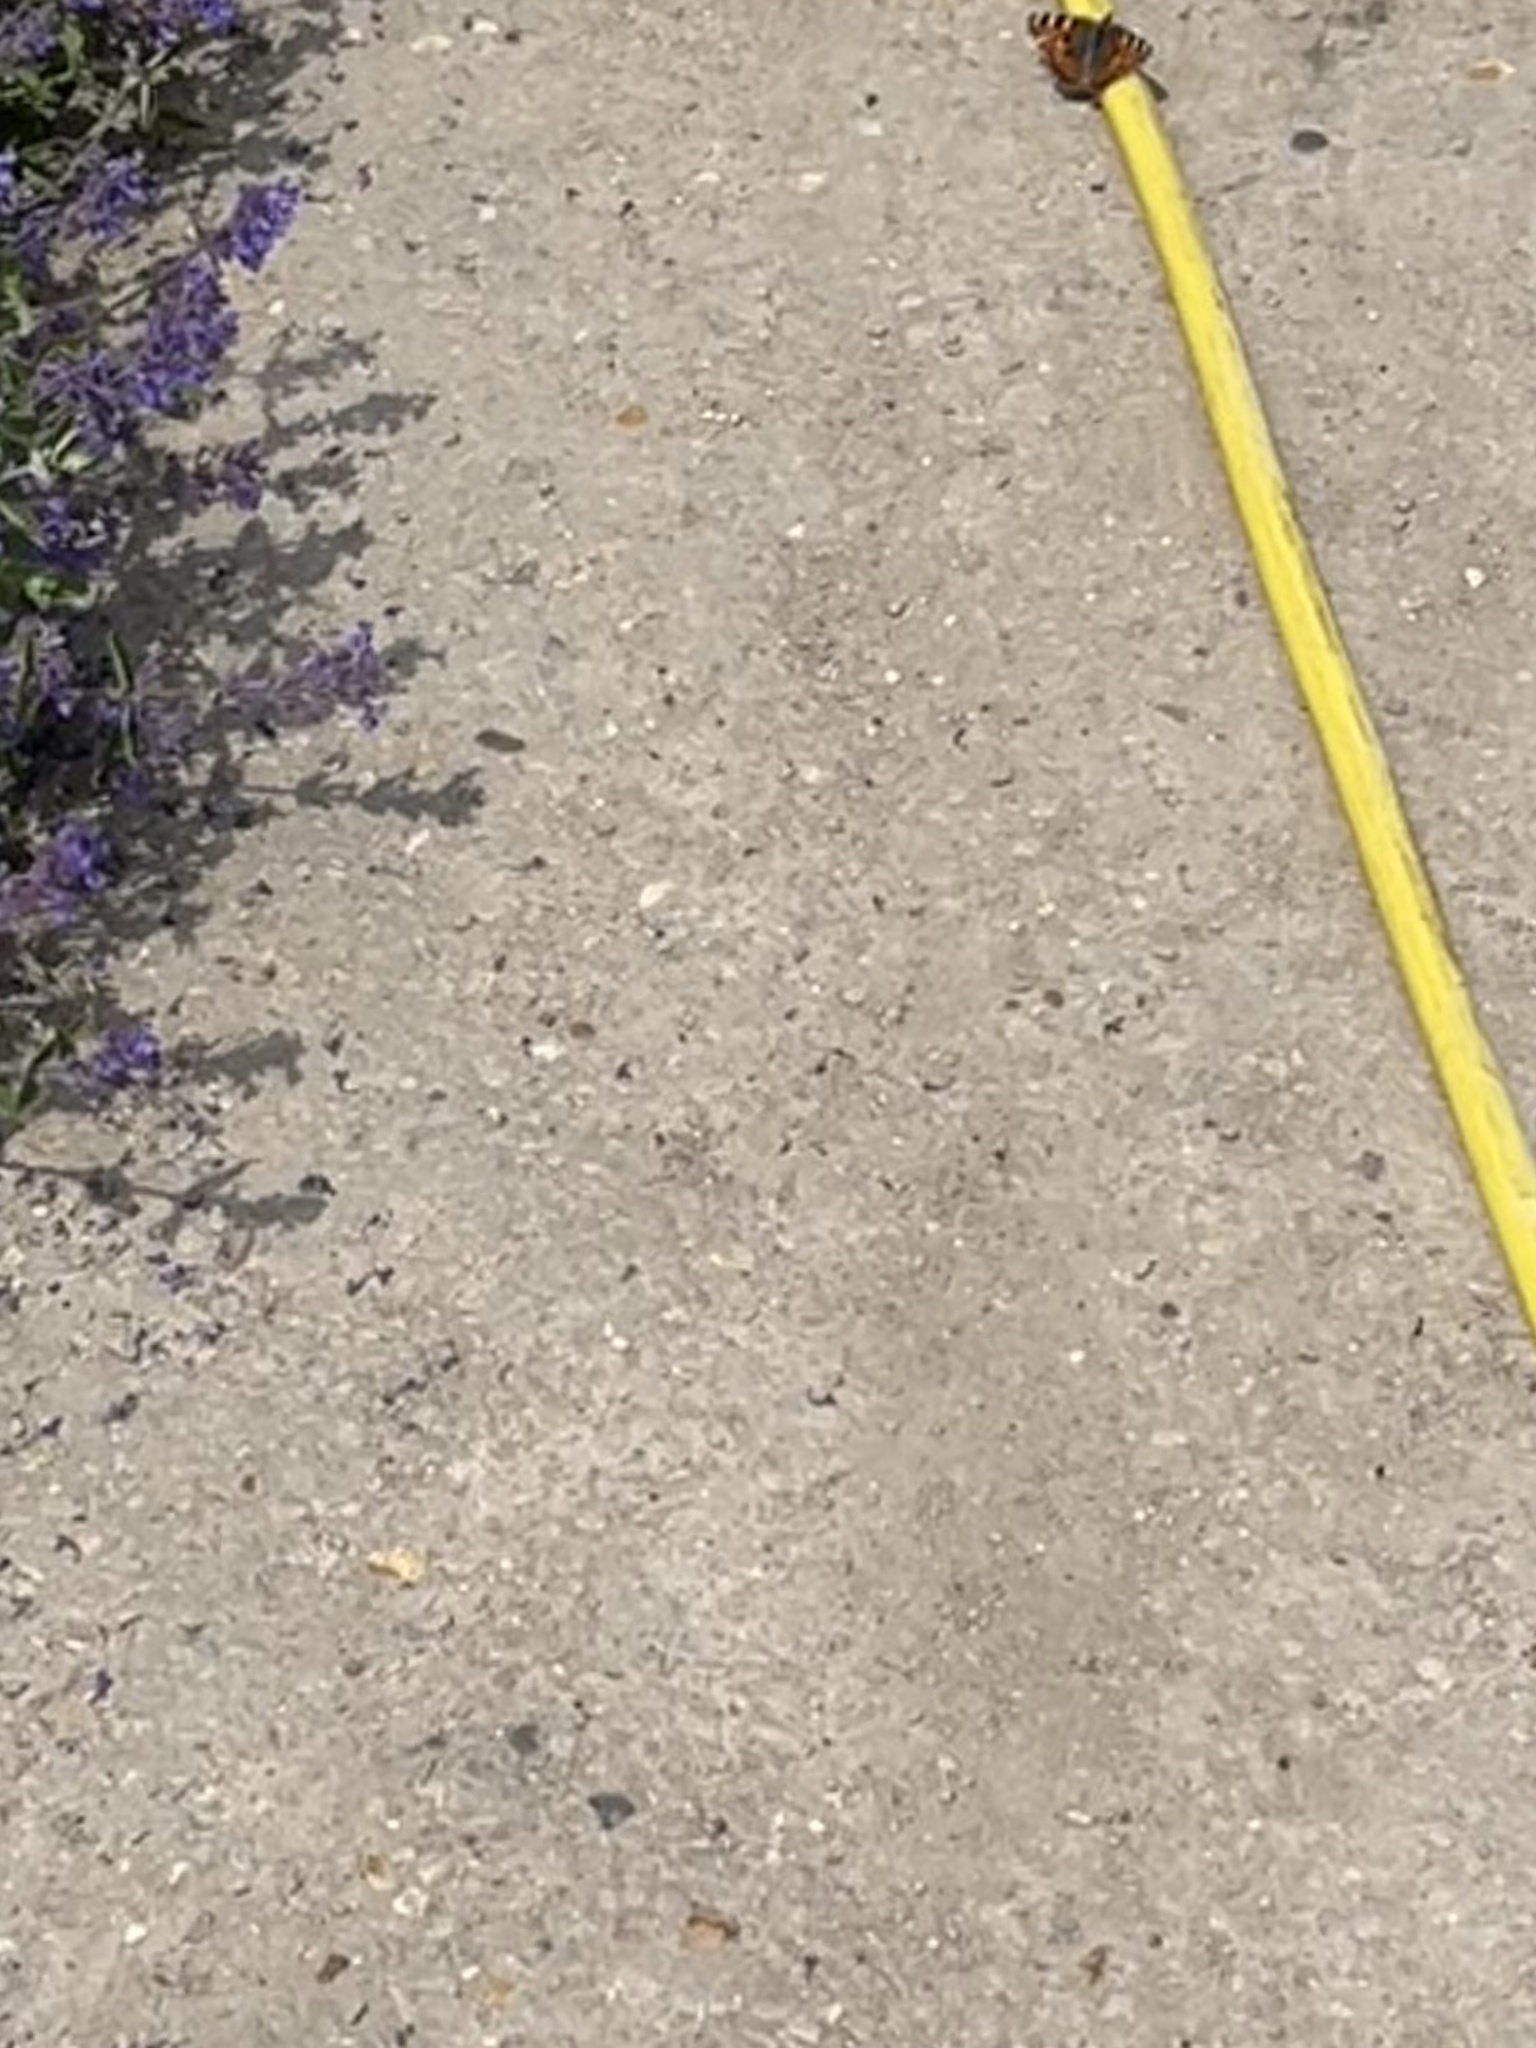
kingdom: Animalia
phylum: Arthropoda
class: Insecta
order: Lepidoptera
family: Nymphalidae
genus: Aglais
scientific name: Aglais urticae
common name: Small tortoiseshell
